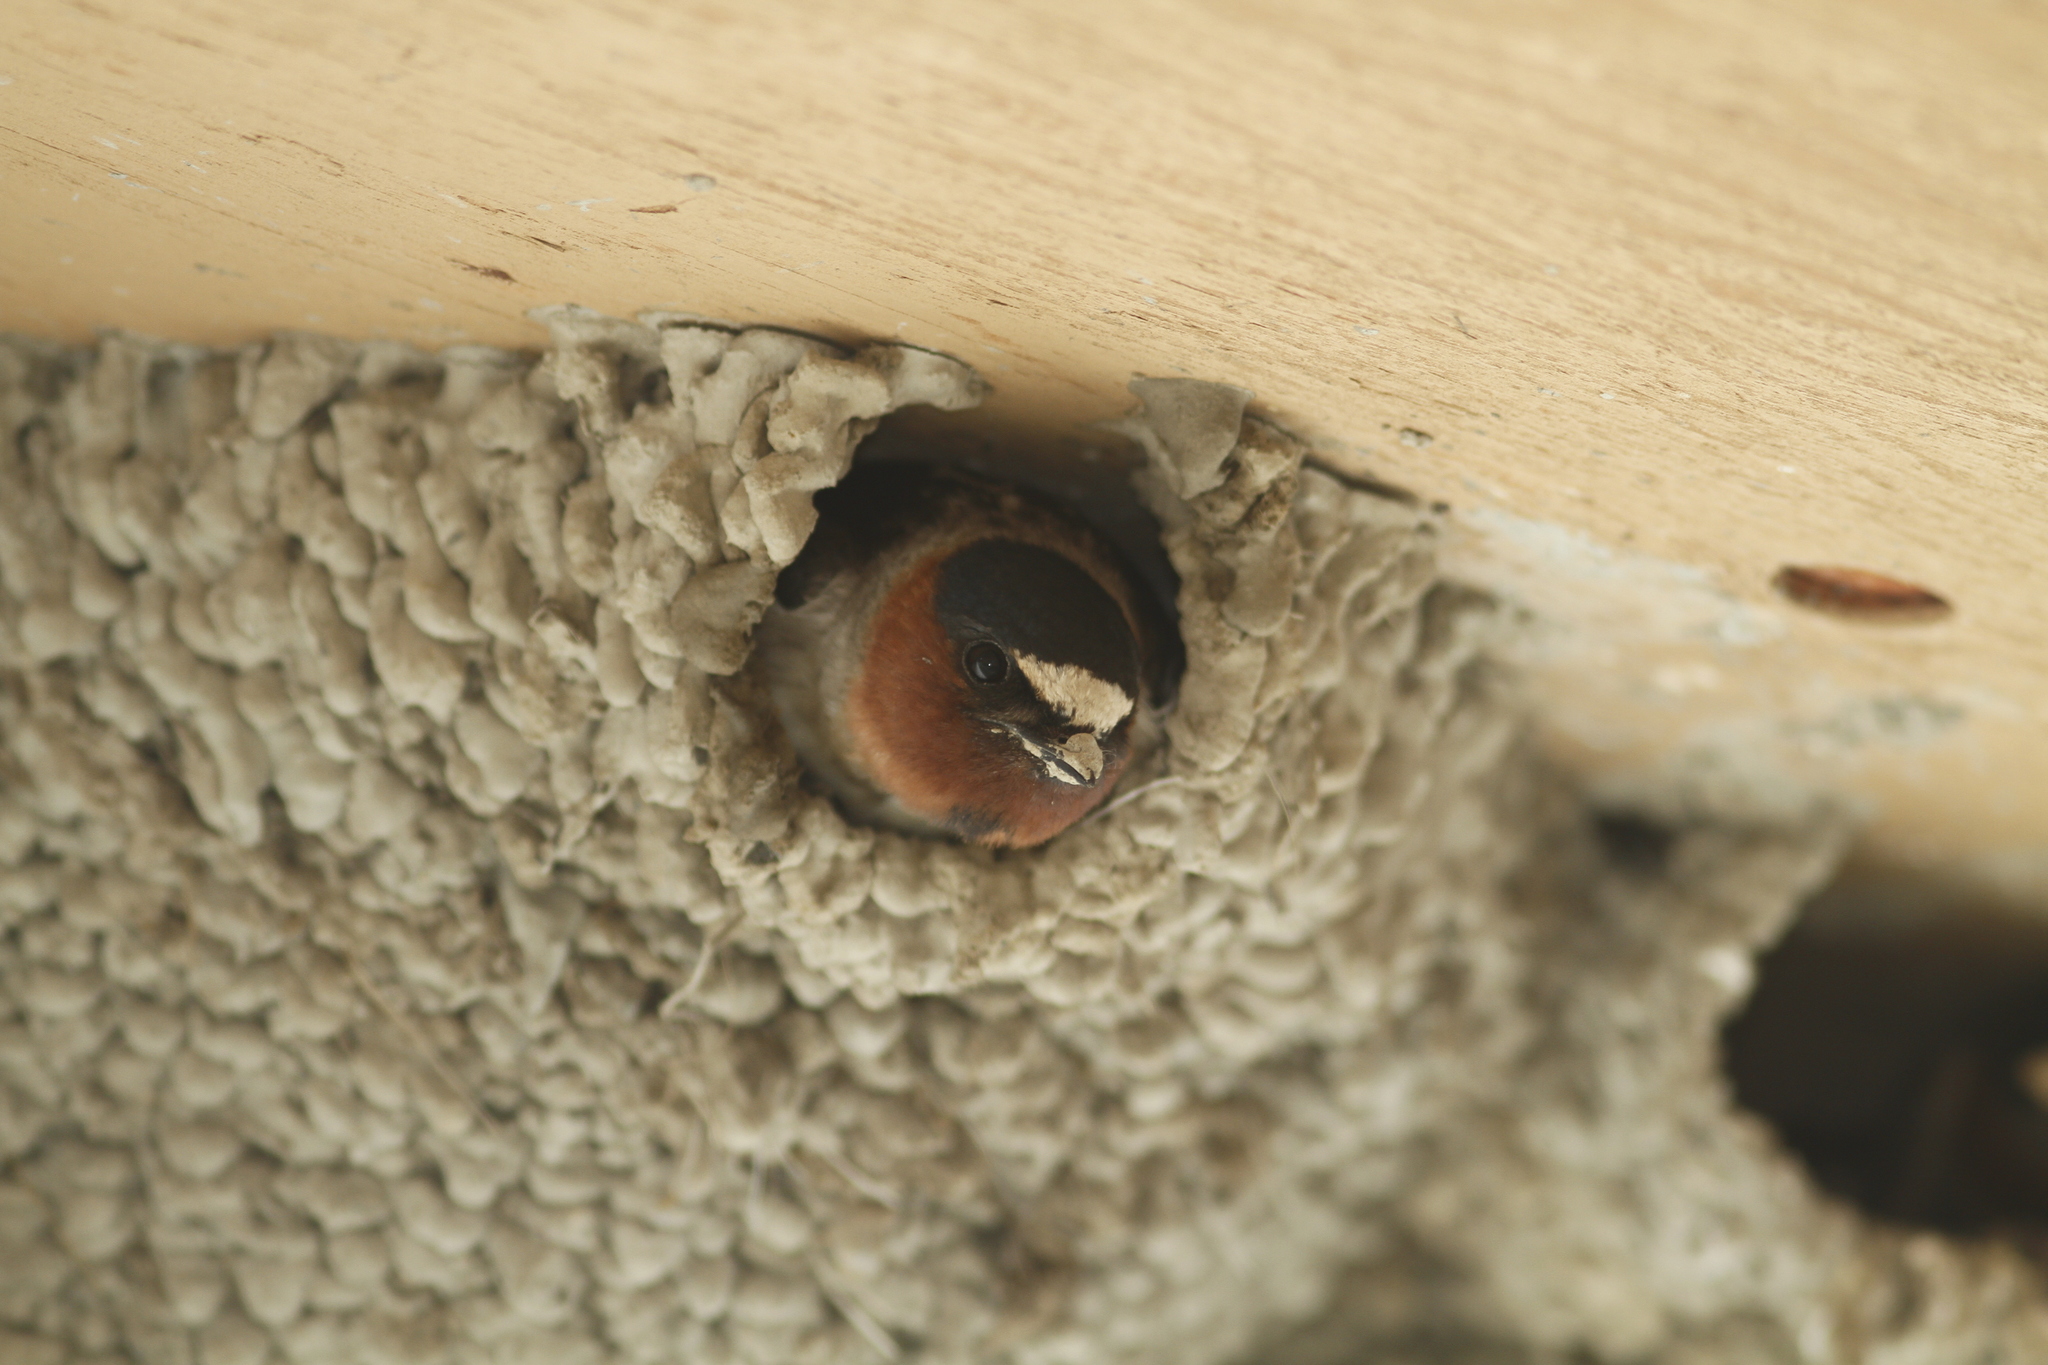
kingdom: Animalia
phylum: Chordata
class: Aves
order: Passeriformes
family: Hirundinidae
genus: Petrochelidon
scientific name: Petrochelidon pyrrhonota
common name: American cliff swallow
